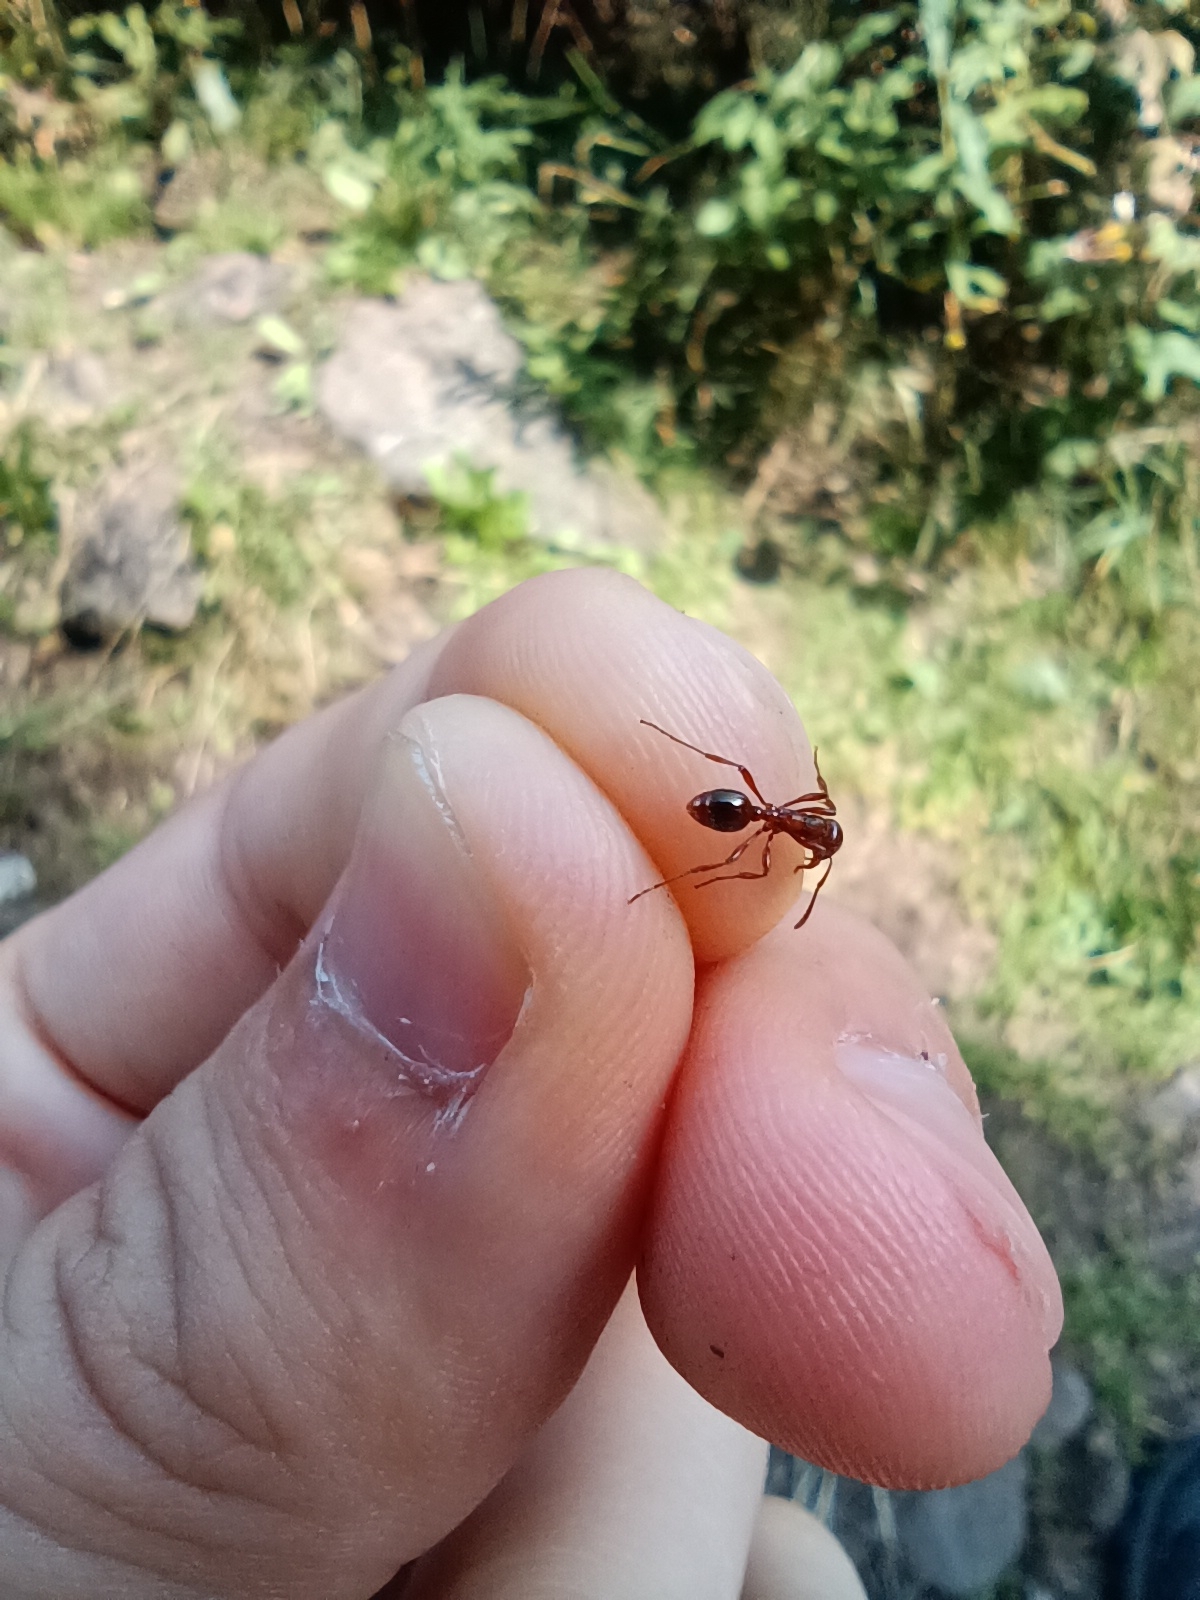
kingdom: Animalia
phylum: Arthropoda
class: Insecta
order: Hymenoptera
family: Formicidae
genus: Manica
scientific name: Manica rubida
